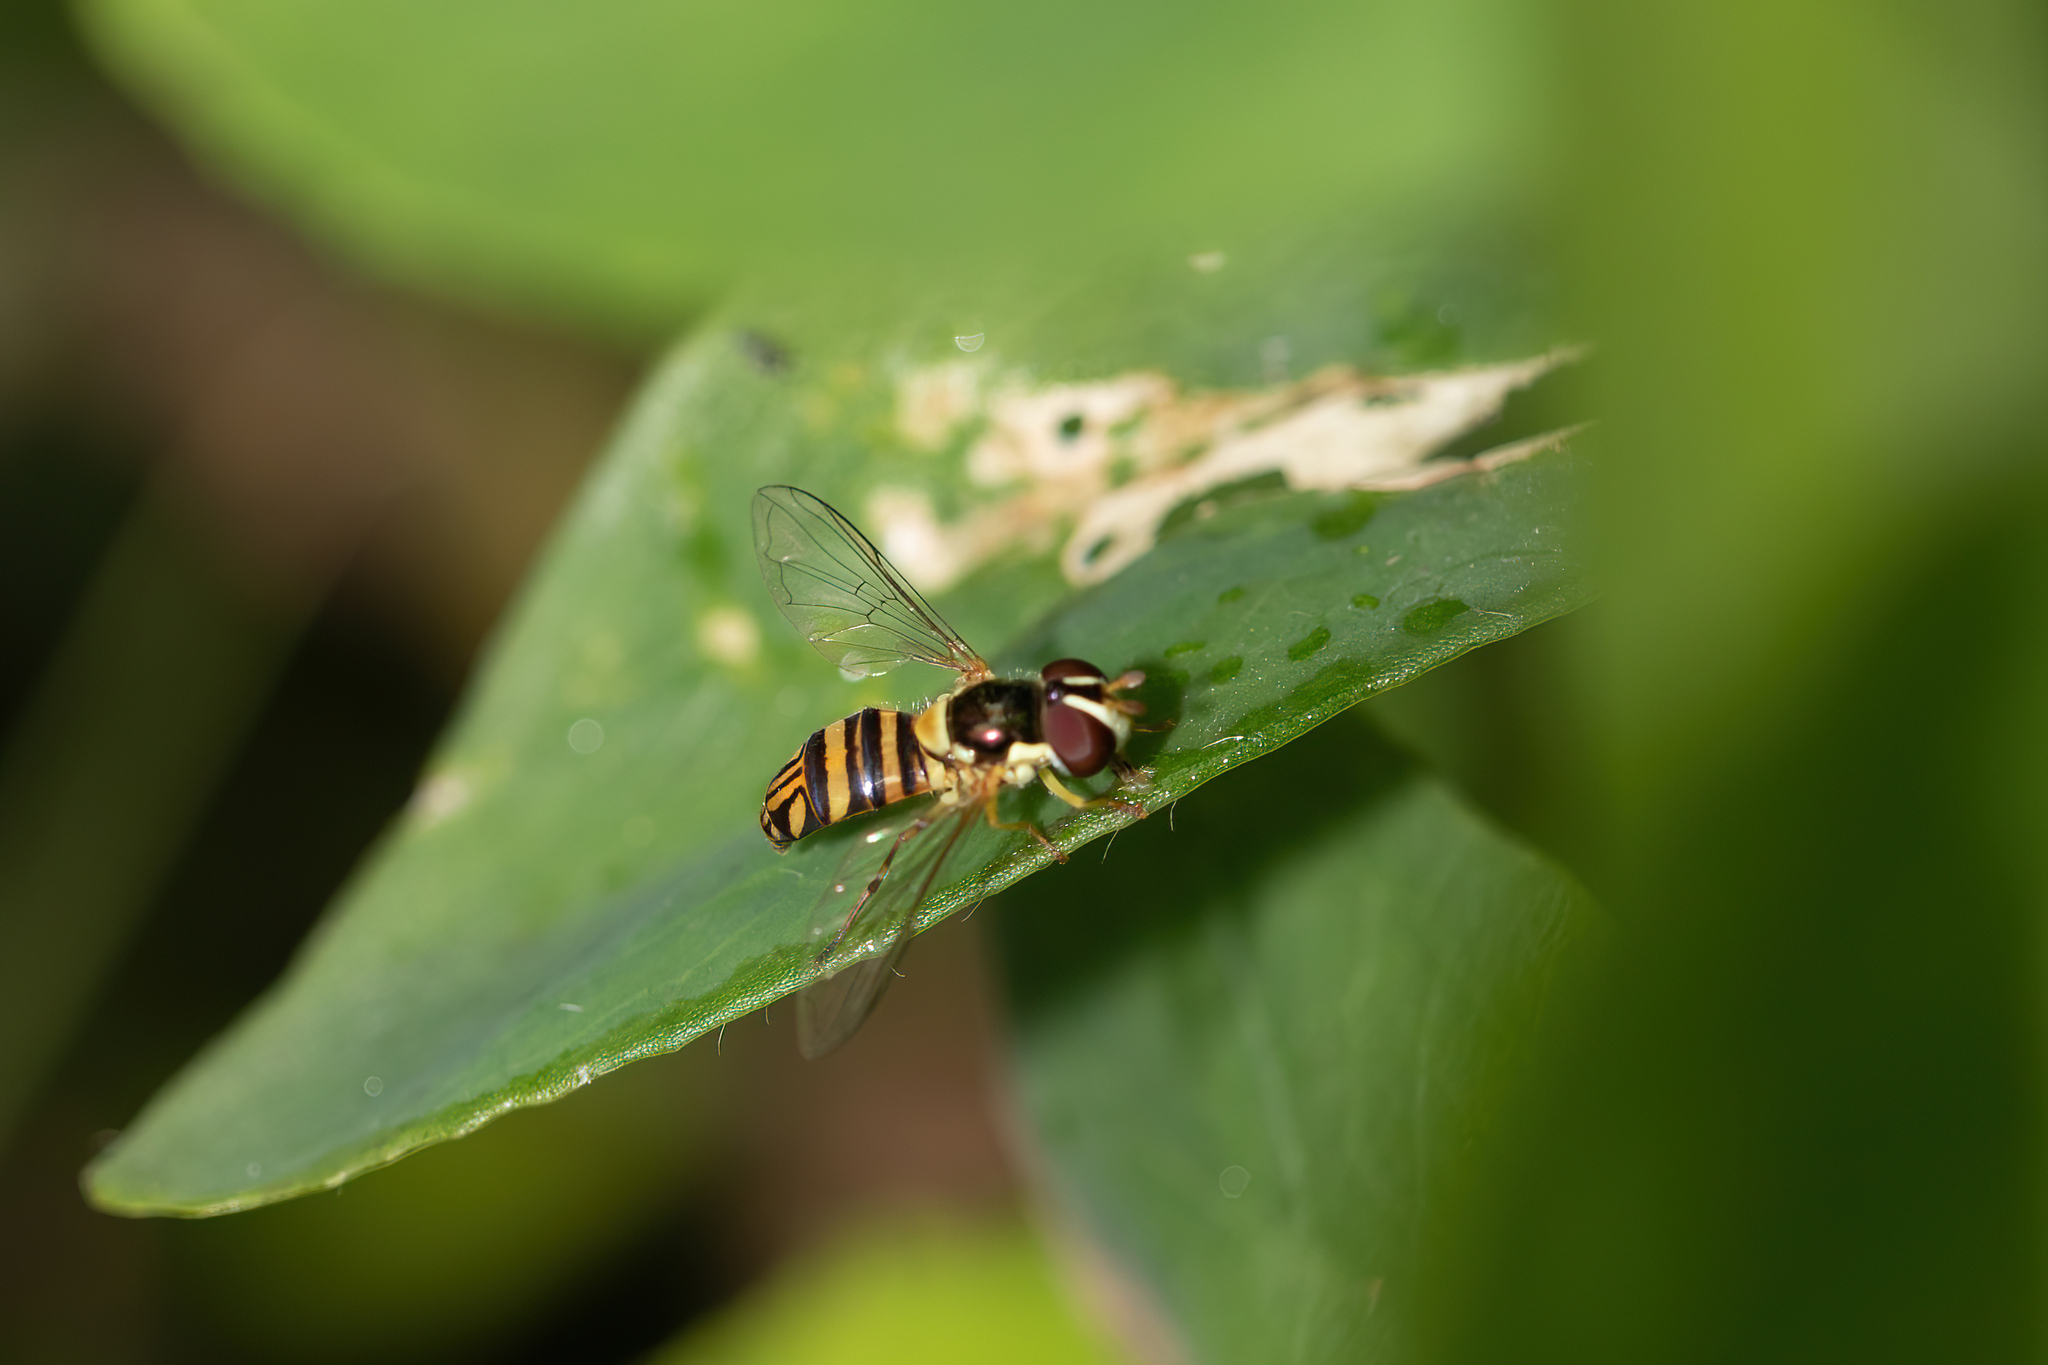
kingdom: Animalia
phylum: Arthropoda
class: Insecta
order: Diptera
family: Syrphidae
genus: Allograpta
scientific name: Allograpta obliqua
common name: Common oblique syrphid
